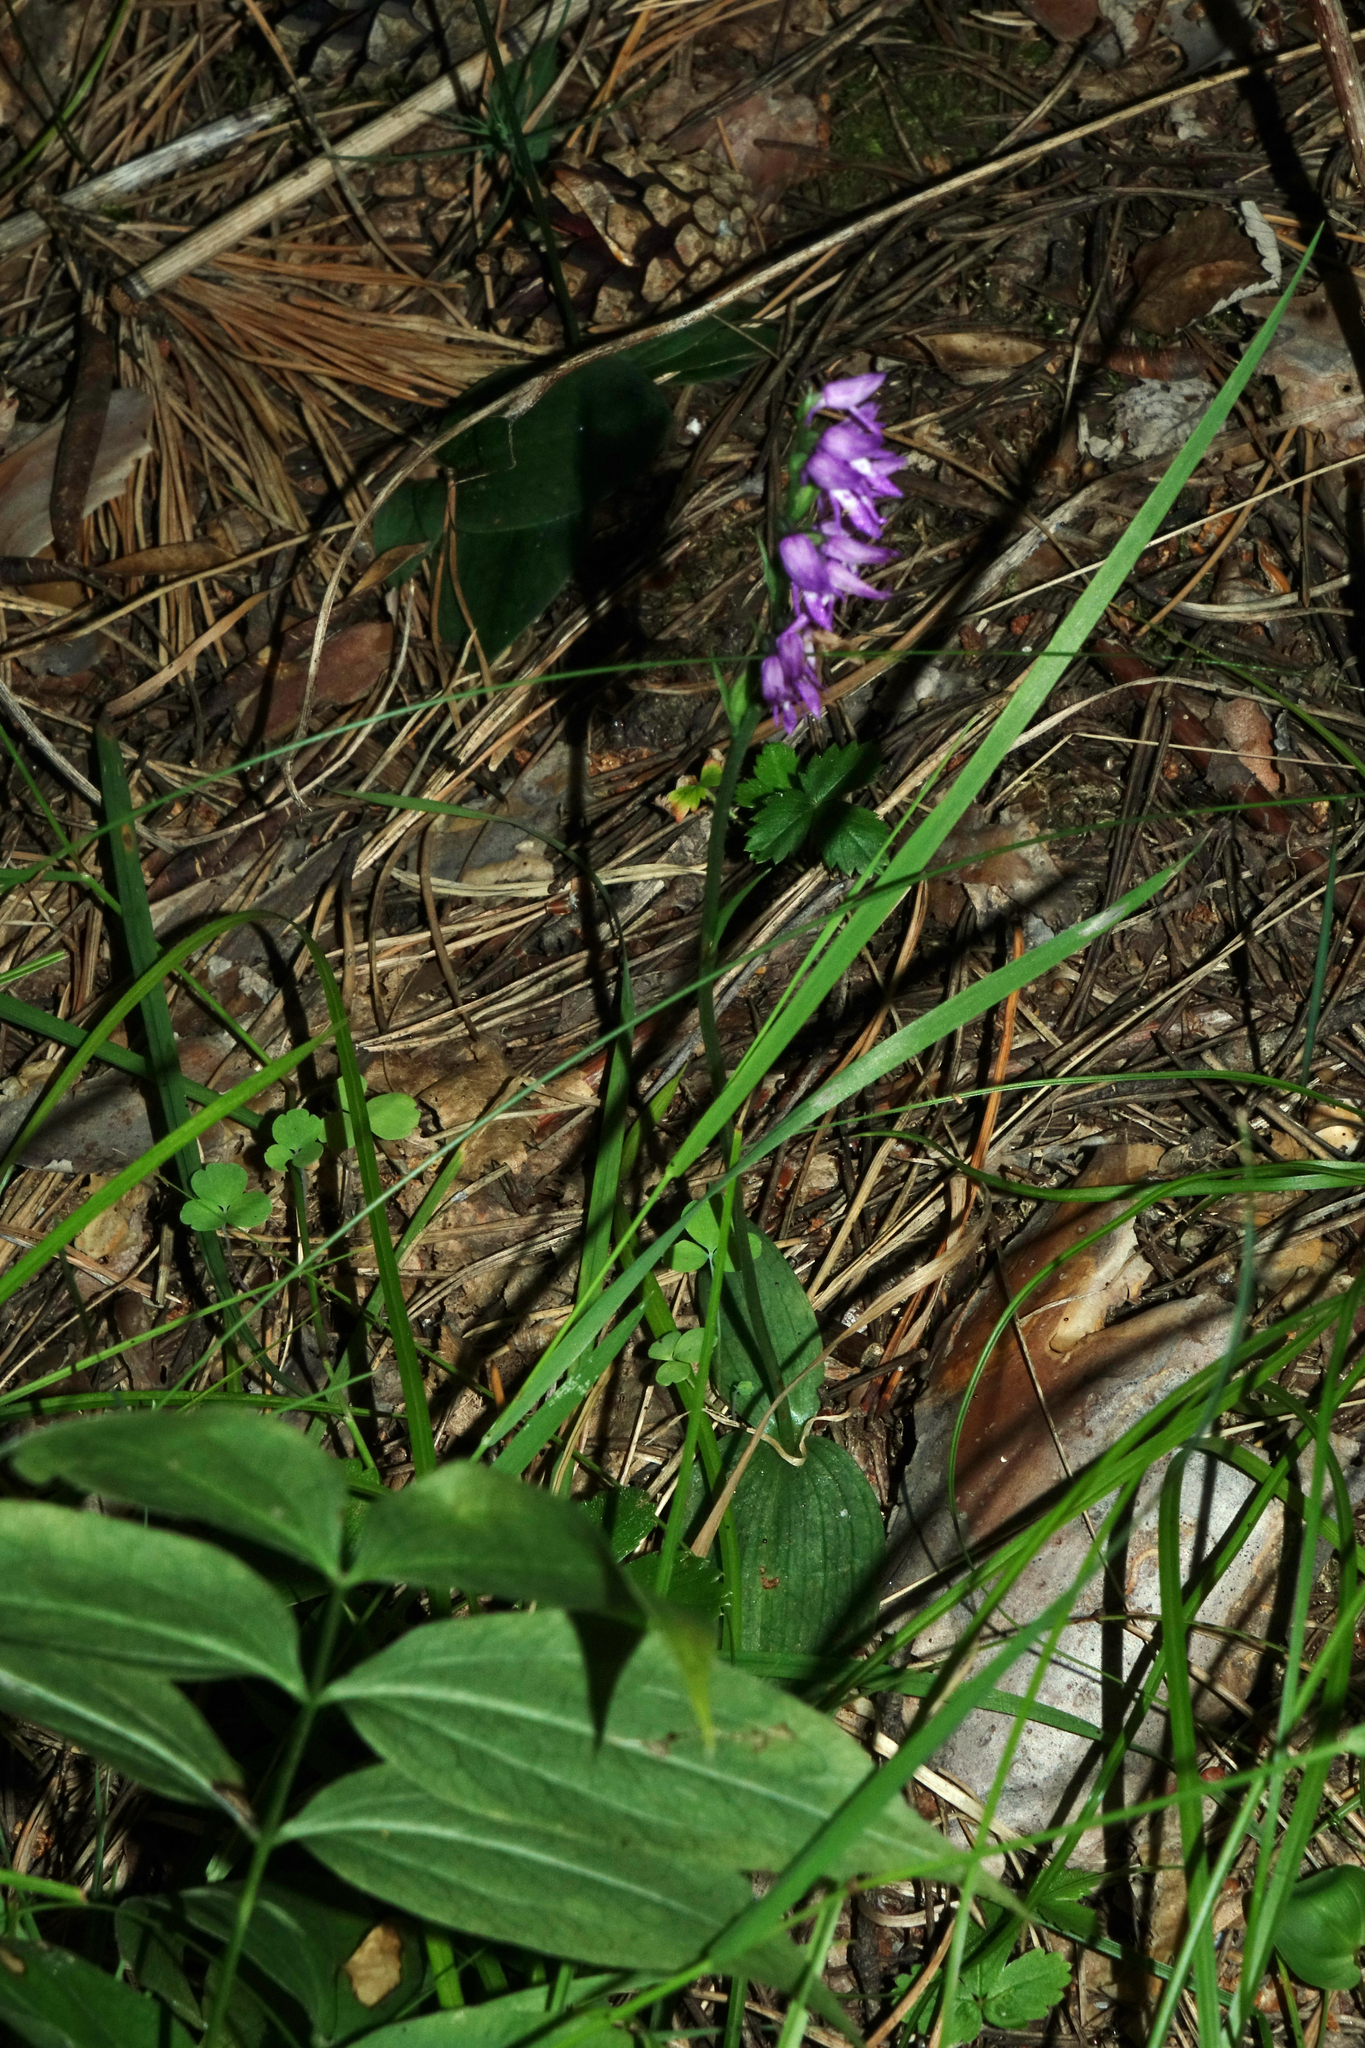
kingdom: Plantae
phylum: Tracheophyta
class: Liliopsida
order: Asparagales
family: Orchidaceae
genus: Hemipilia
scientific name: Hemipilia cucullata
